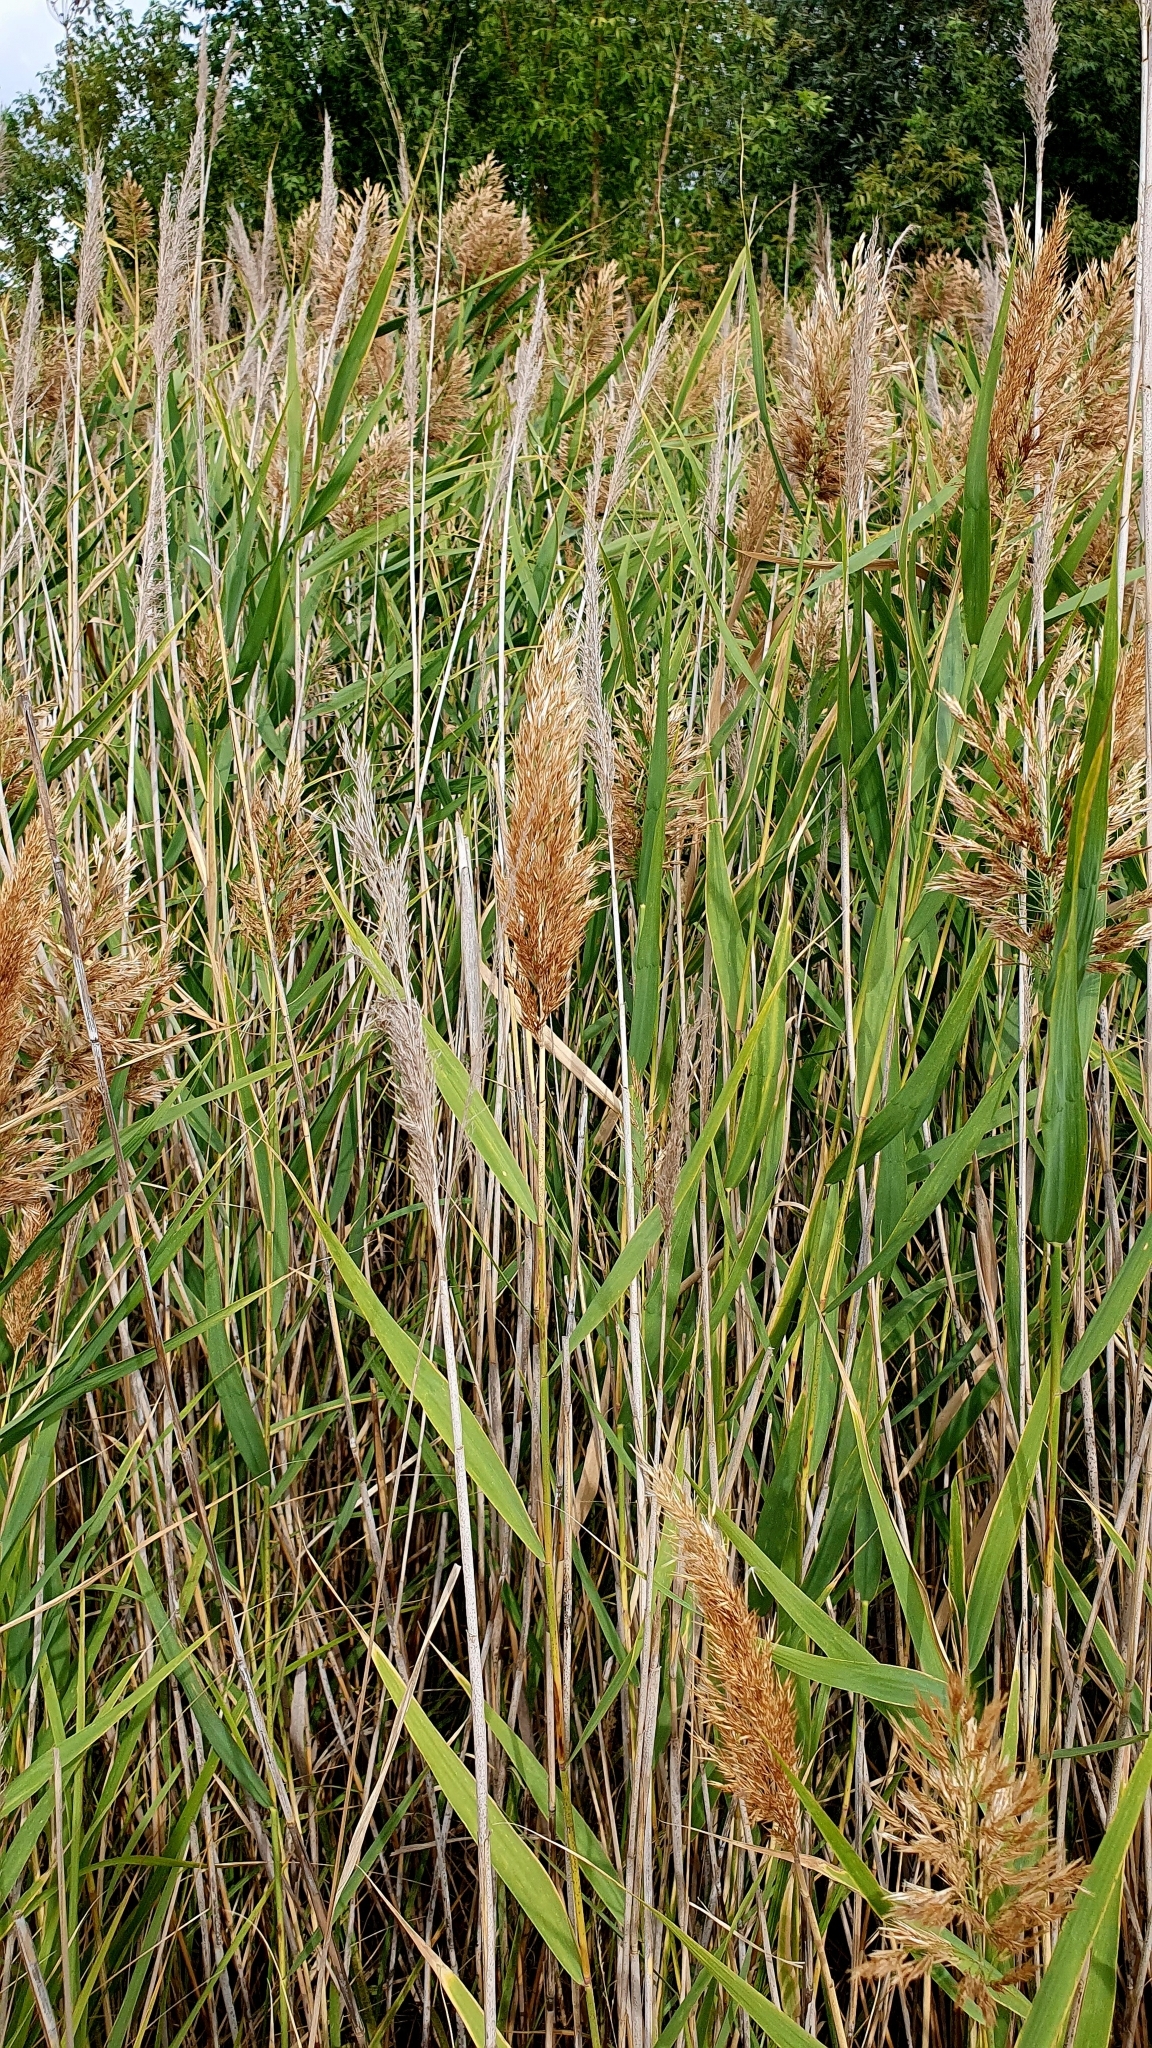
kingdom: Plantae
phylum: Tracheophyta
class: Liliopsida
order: Poales
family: Poaceae
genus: Phragmites
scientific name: Phragmites australis
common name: Common reed
